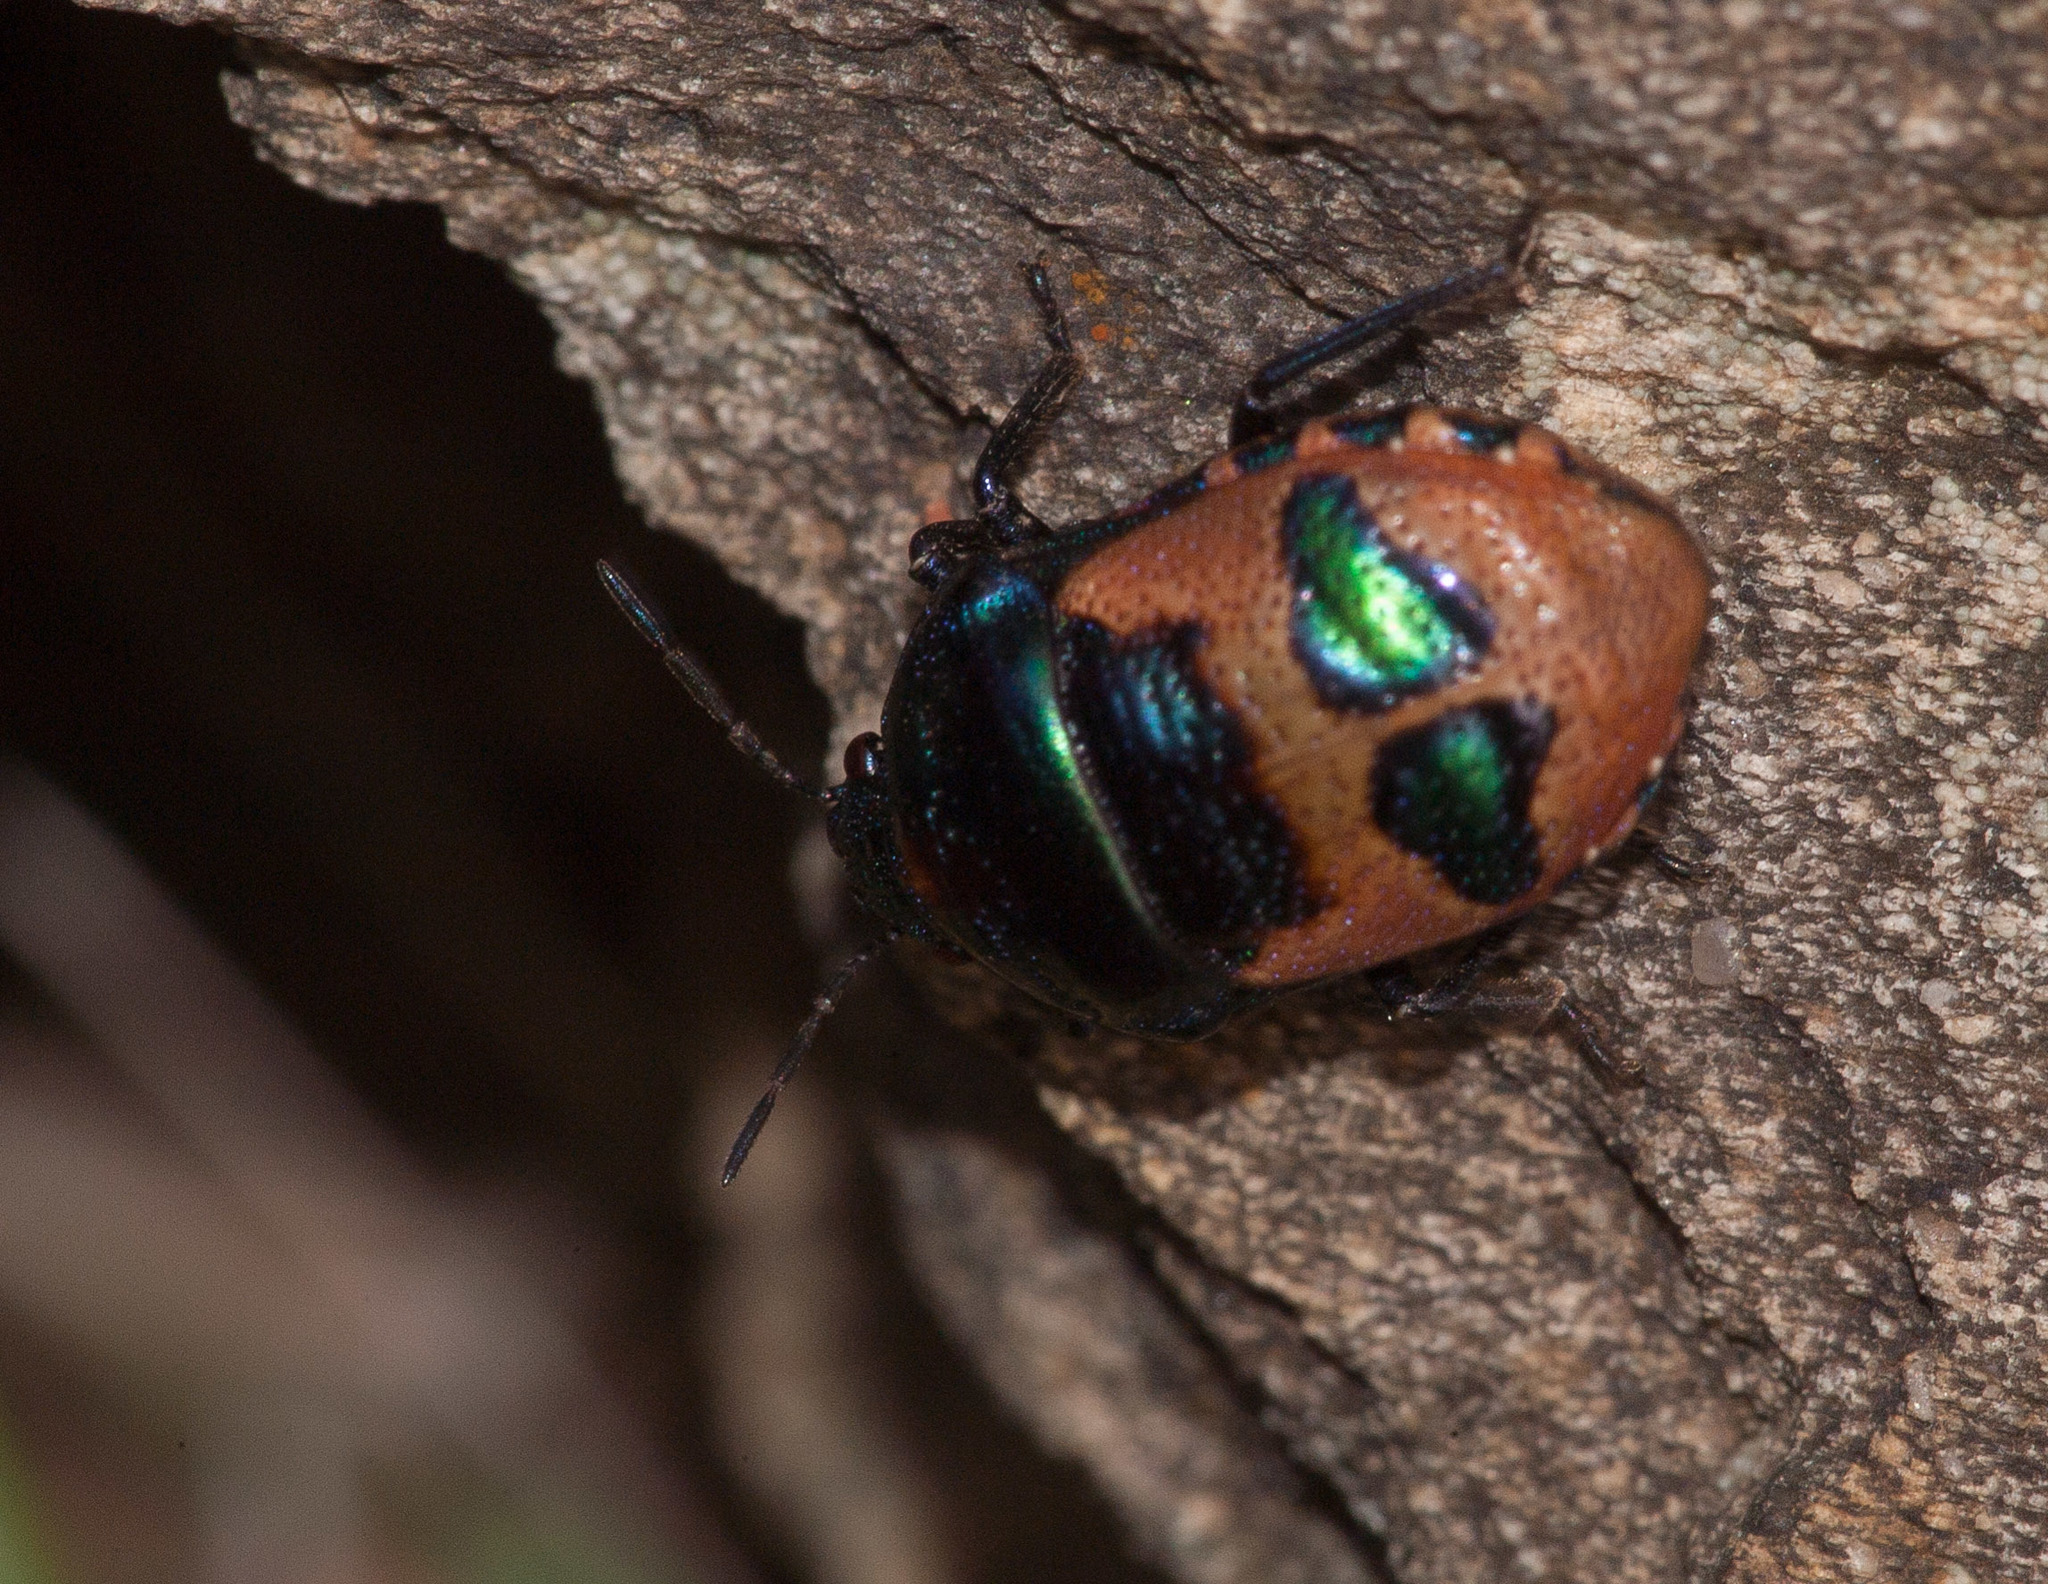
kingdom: Animalia
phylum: Arthropoda
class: Insecta
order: Hemiptera
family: Scutelleridae
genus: Choerocoris
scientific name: Choerocoris paganus
